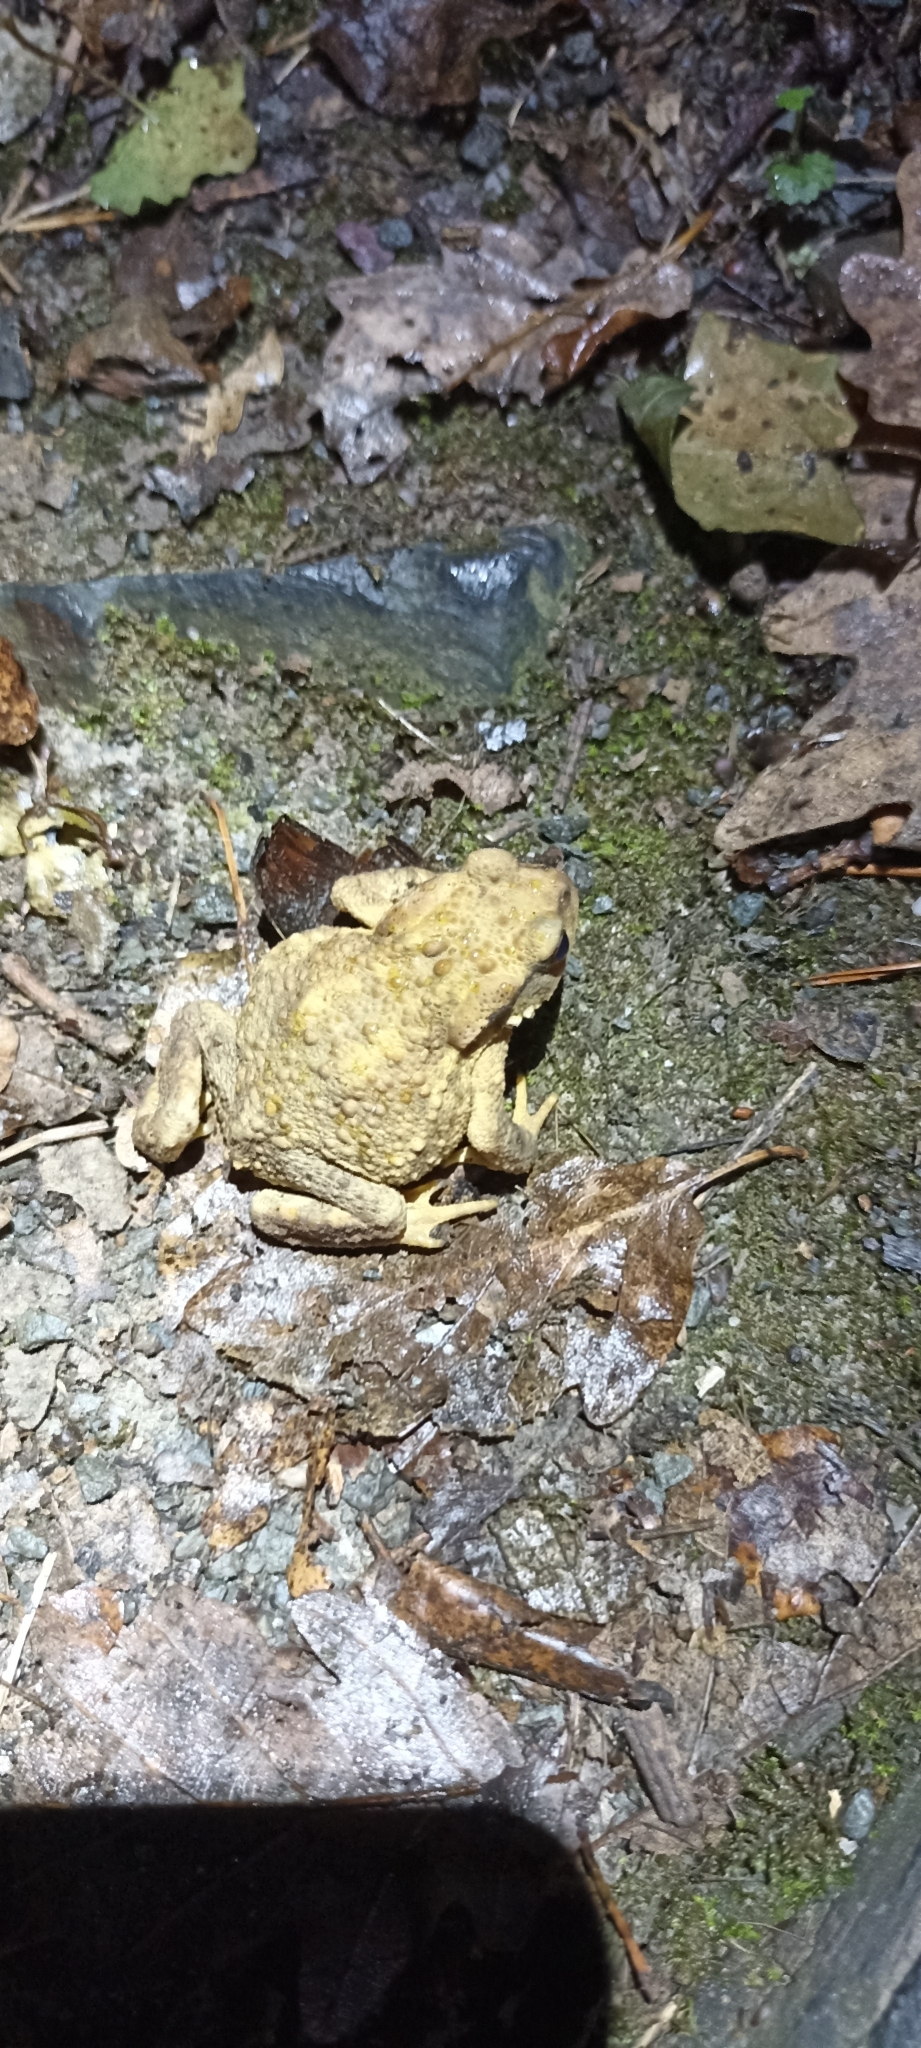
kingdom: Animalia
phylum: Chordata
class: Amphibia
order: Anura
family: Bufonidae
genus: Bufo
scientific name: Bufo spinosus
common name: Western common toad
